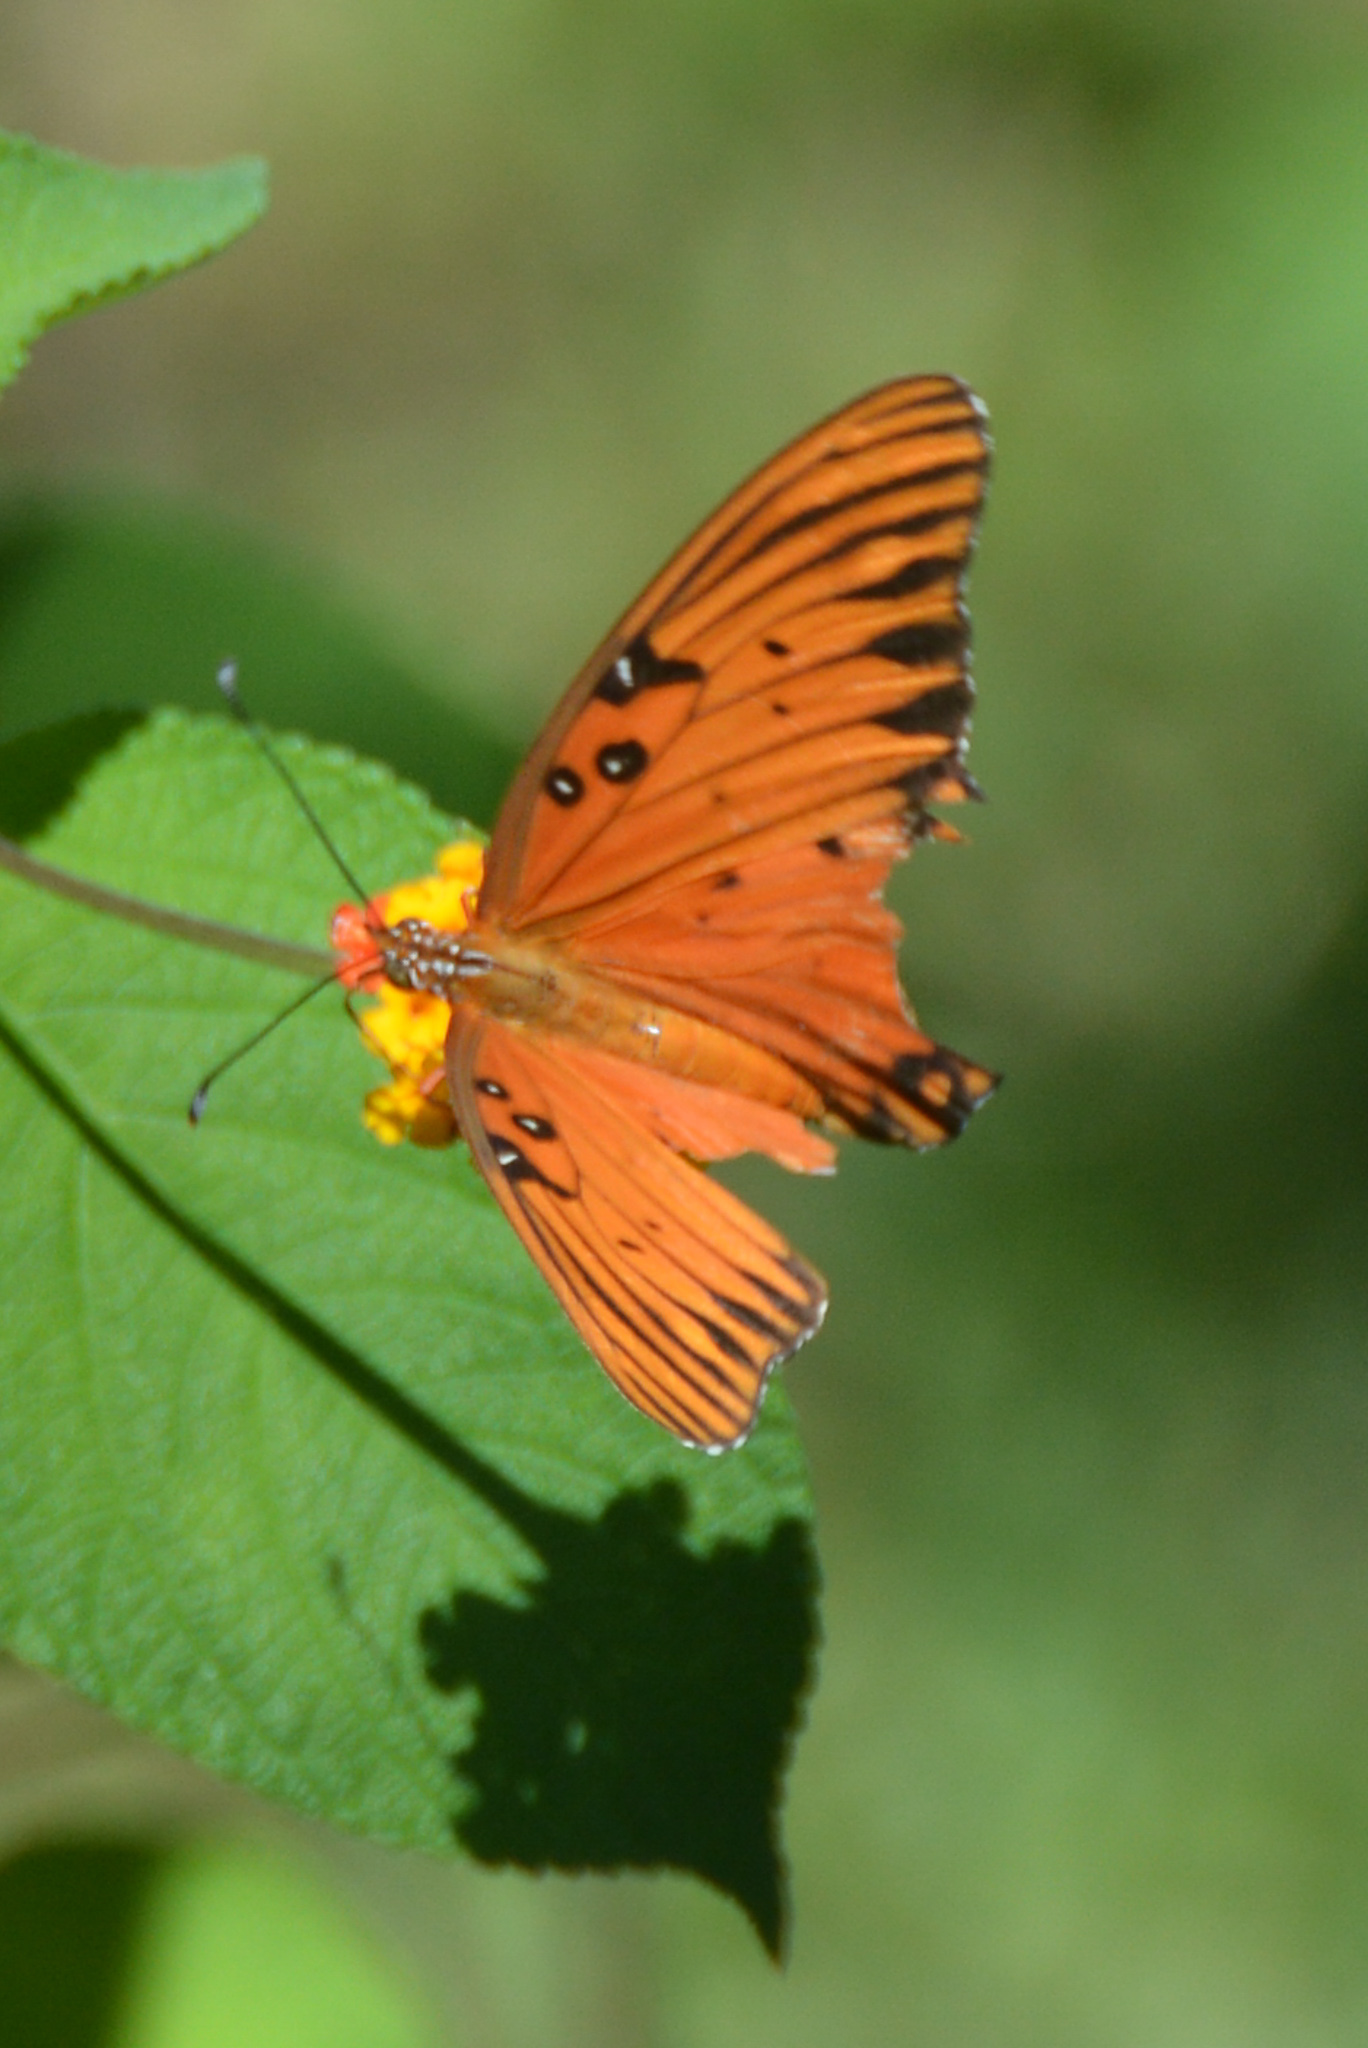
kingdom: Animalia
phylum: Arthropoda
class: Insecta
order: Lepidoptera
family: Nymphalidae
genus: Dione
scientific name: Dione vanillae
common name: Gulf fritillary
